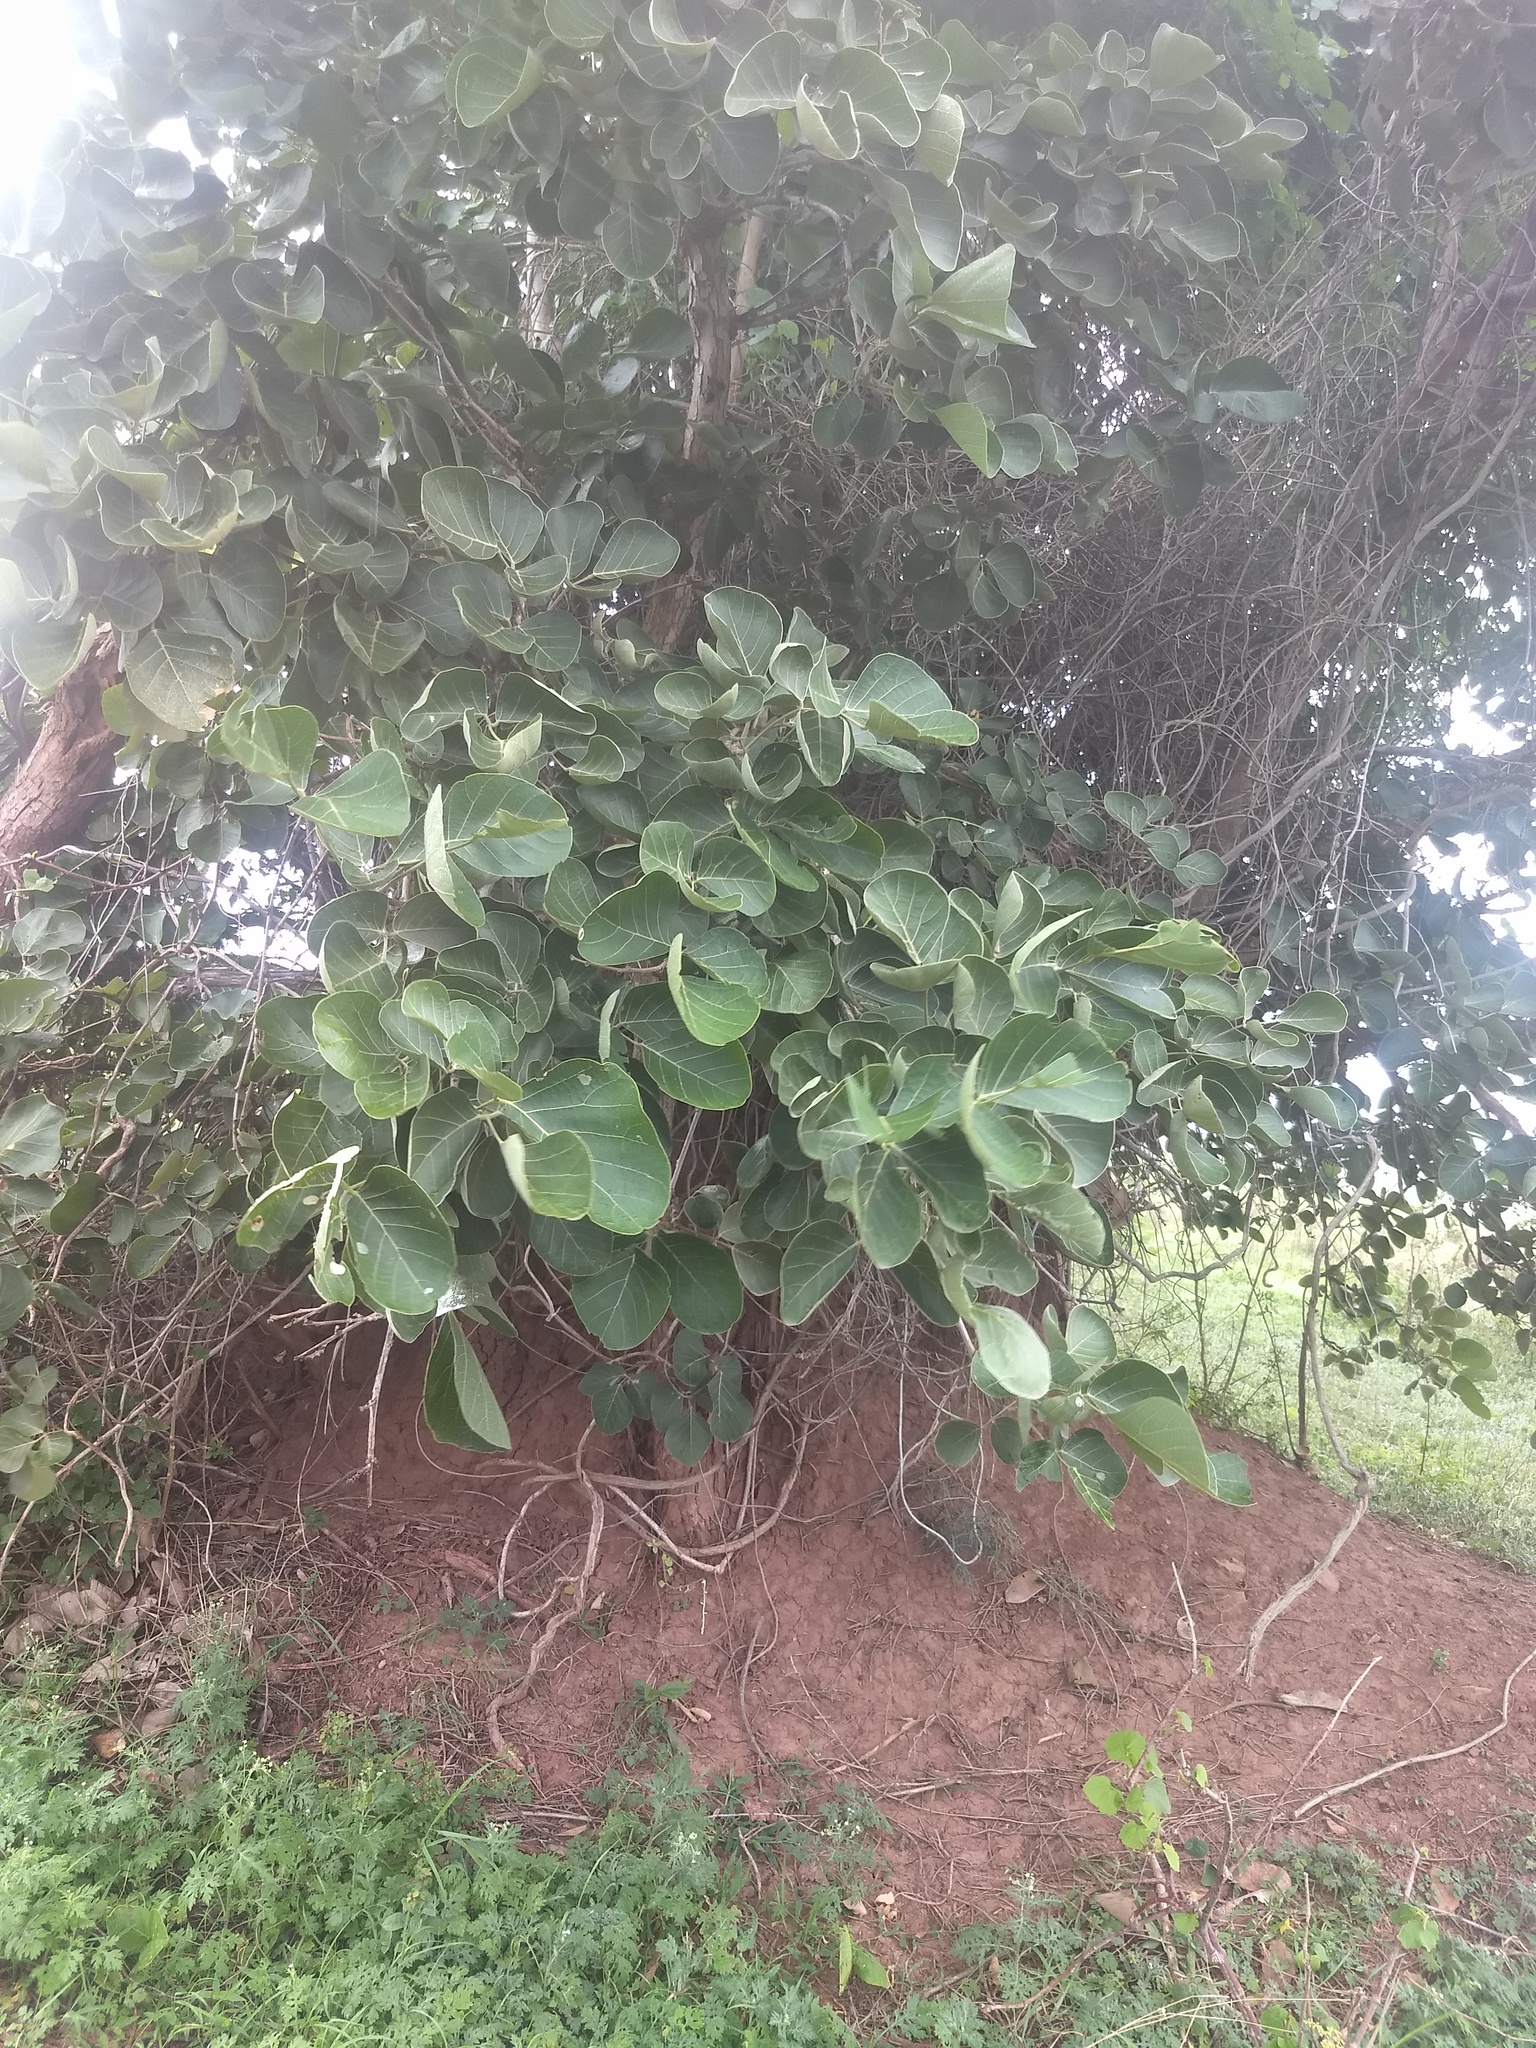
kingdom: Plantae
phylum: Tracheophyta
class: Magnoliopsida
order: Fabales
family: Fabaceae
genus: Butea
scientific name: Butea monosperma
